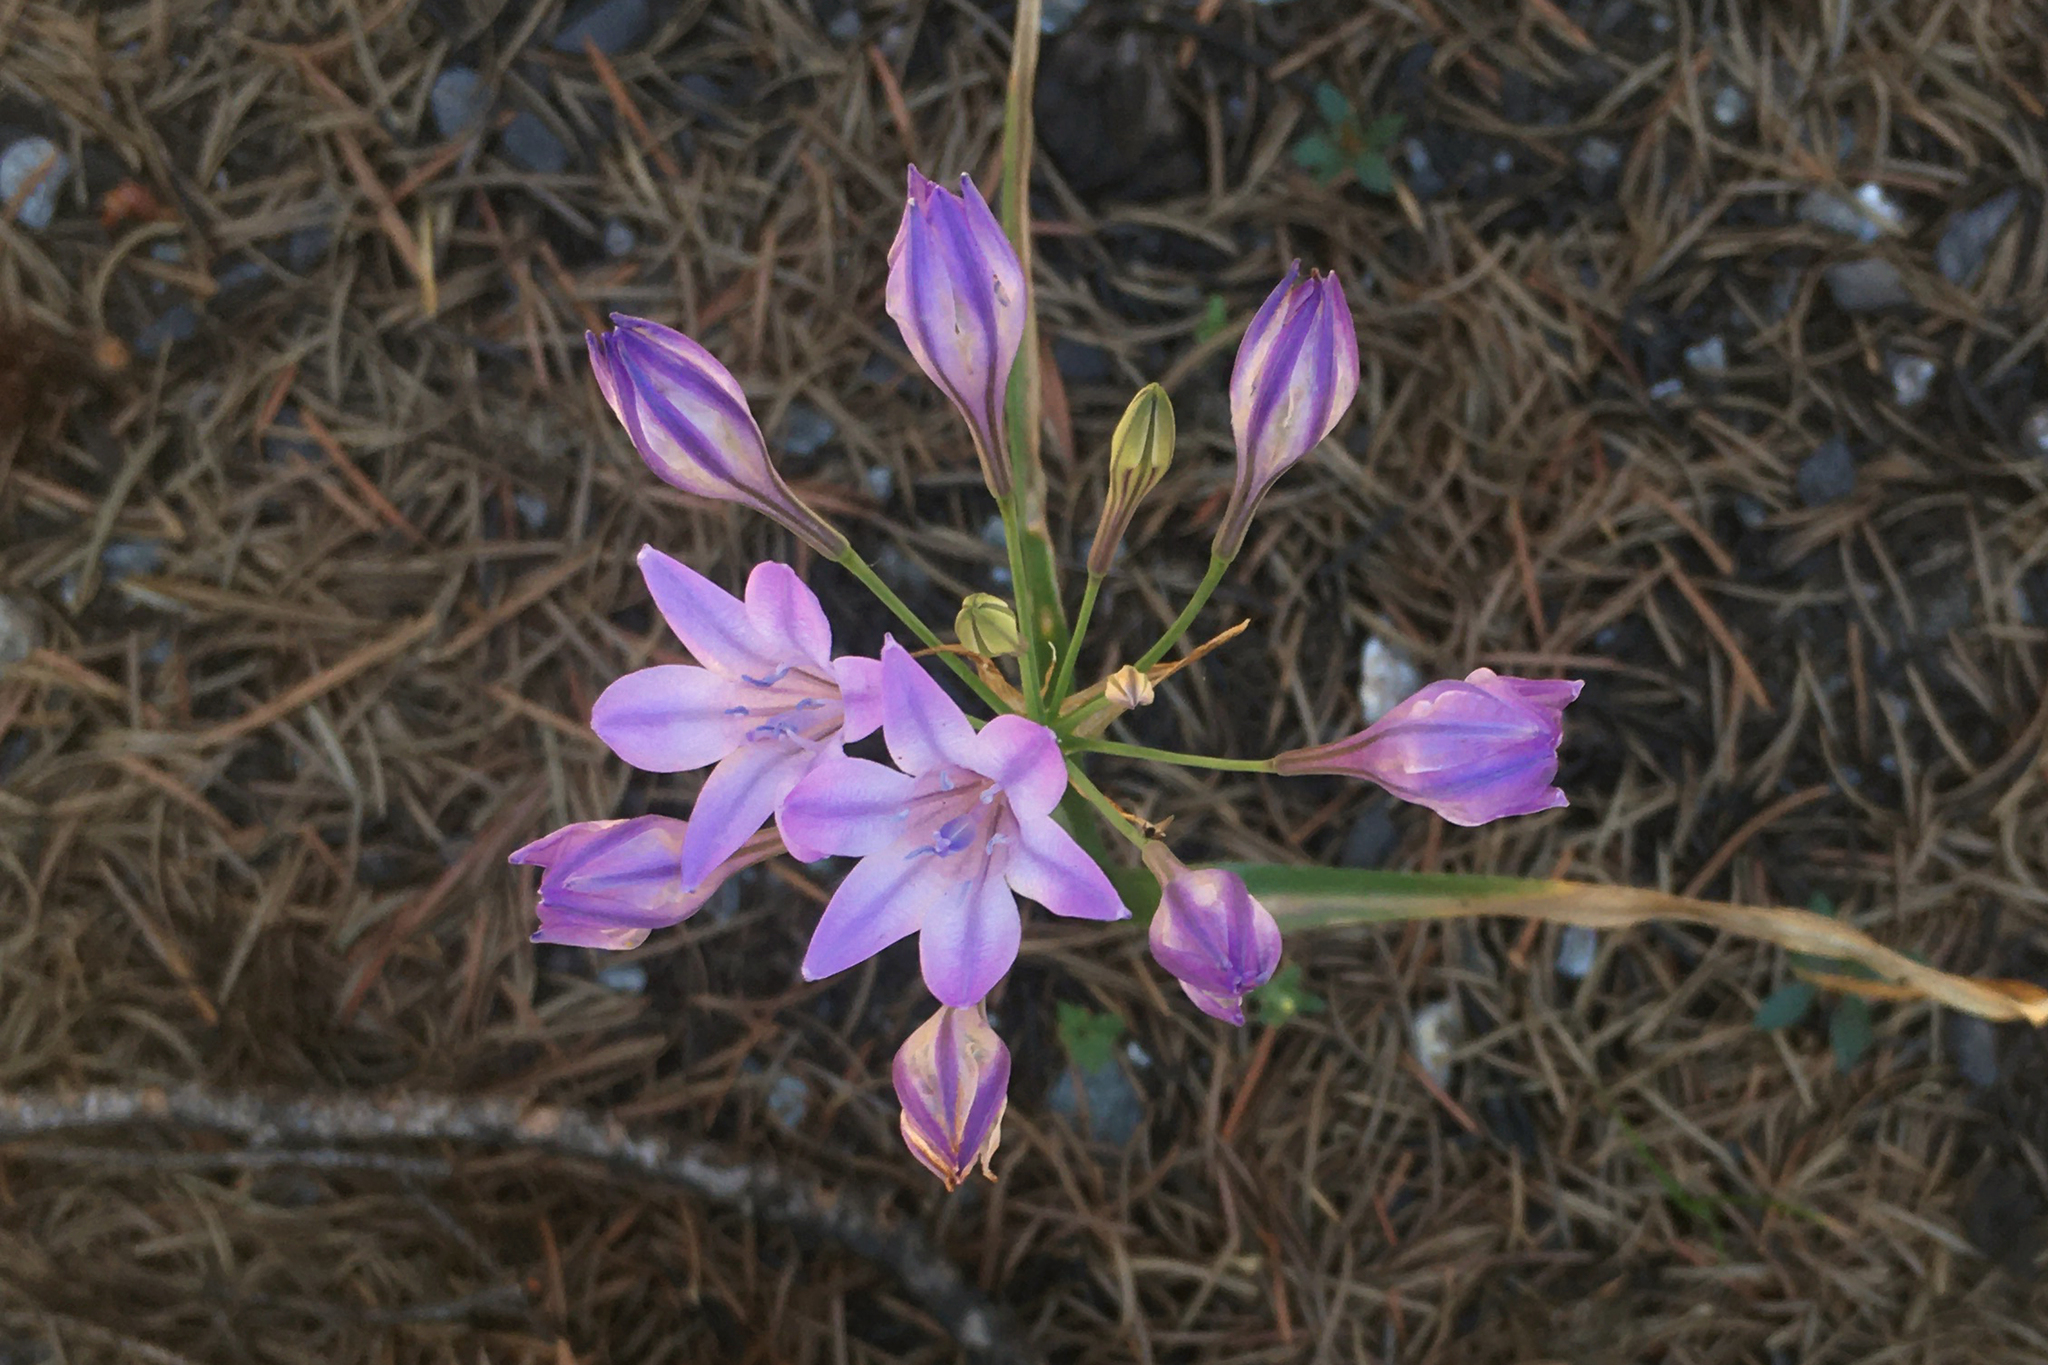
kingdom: Plantae
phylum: Tracheophyta
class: Liliopsida
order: Asparagales
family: Asparagaceae
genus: Triteleia
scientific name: Triteleia laxa
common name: Triplet-lily
